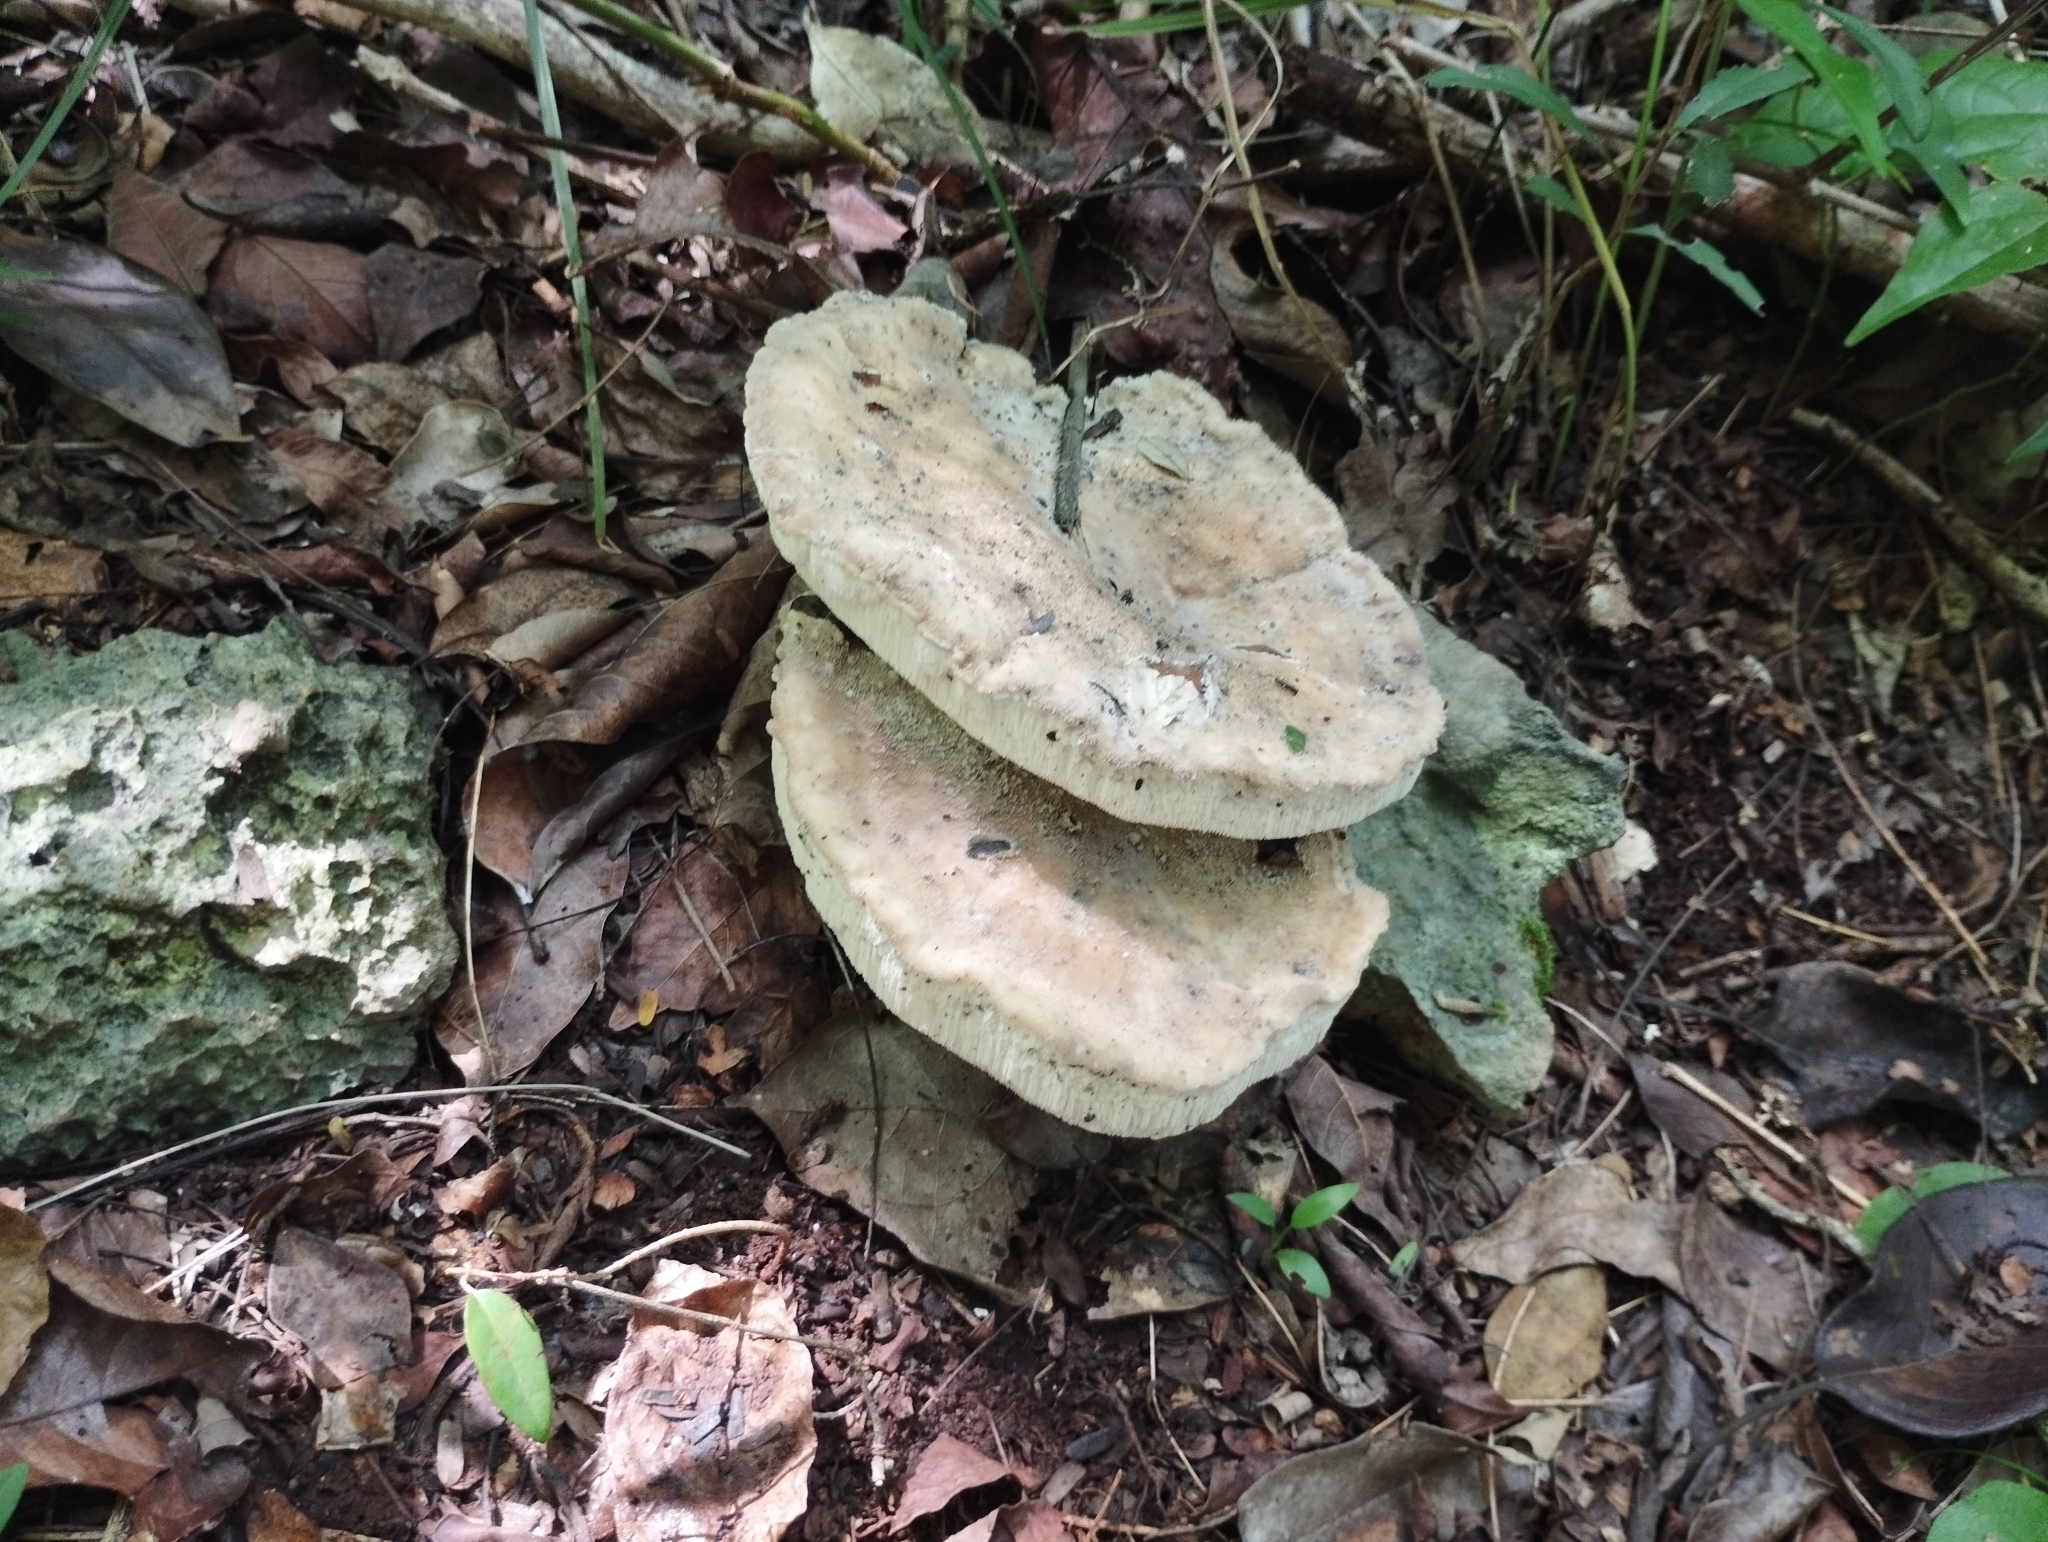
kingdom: Fungi
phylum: Basidiomycota
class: Agaricomycetes
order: Hymenochaetales
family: Hymenochaetaceae
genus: Pseudoinonotus
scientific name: Pseudoinonotus dryadeus
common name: Oak bracket
